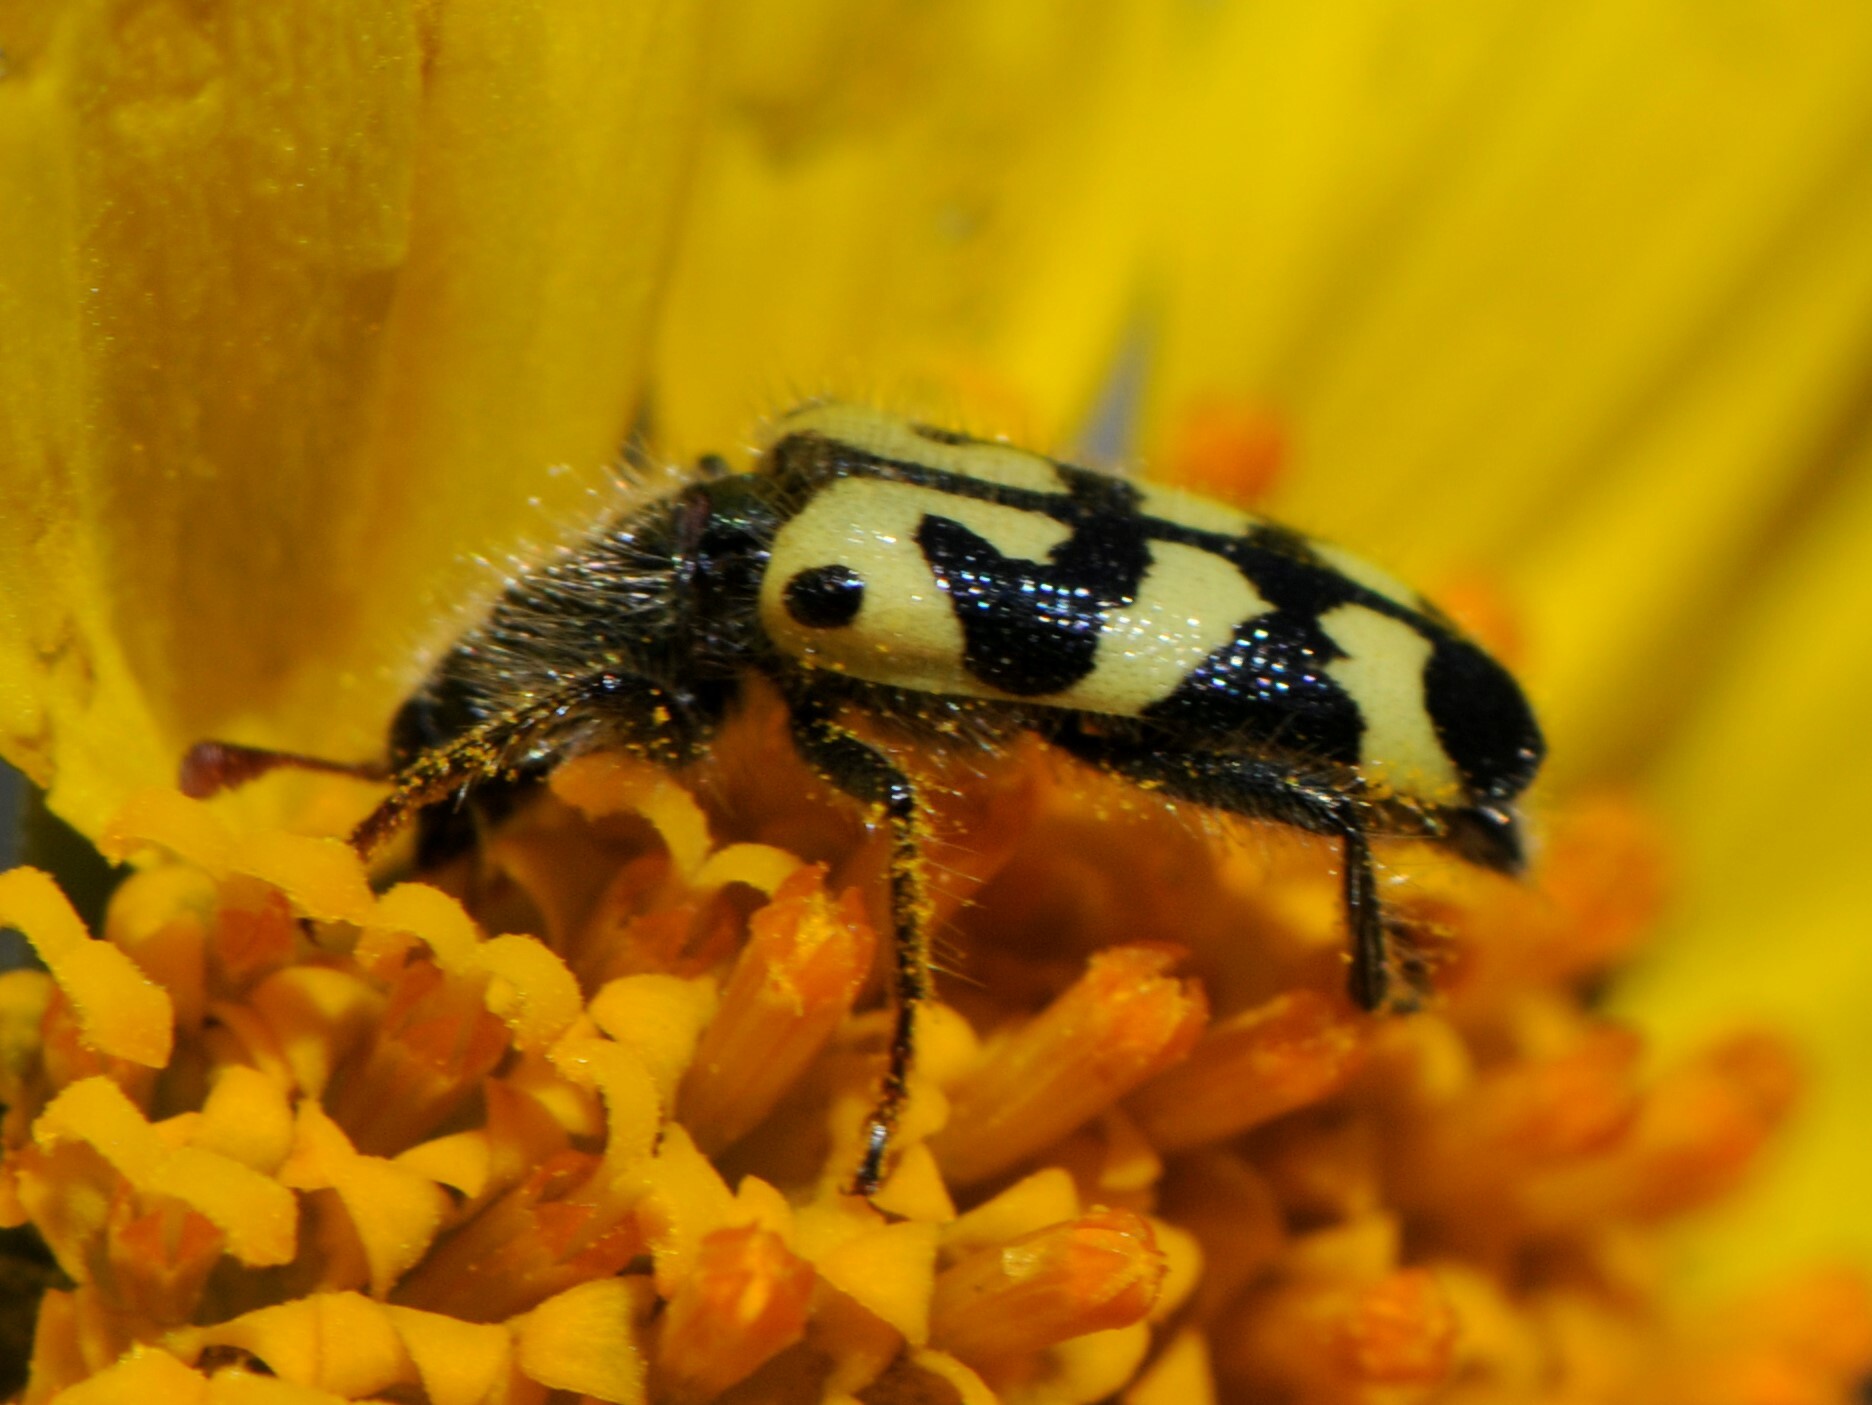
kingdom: Animalia
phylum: Arthropoda
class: Insecta
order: Coleoptera
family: Cleridae
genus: Trichodes
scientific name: Trichodes ornatus
